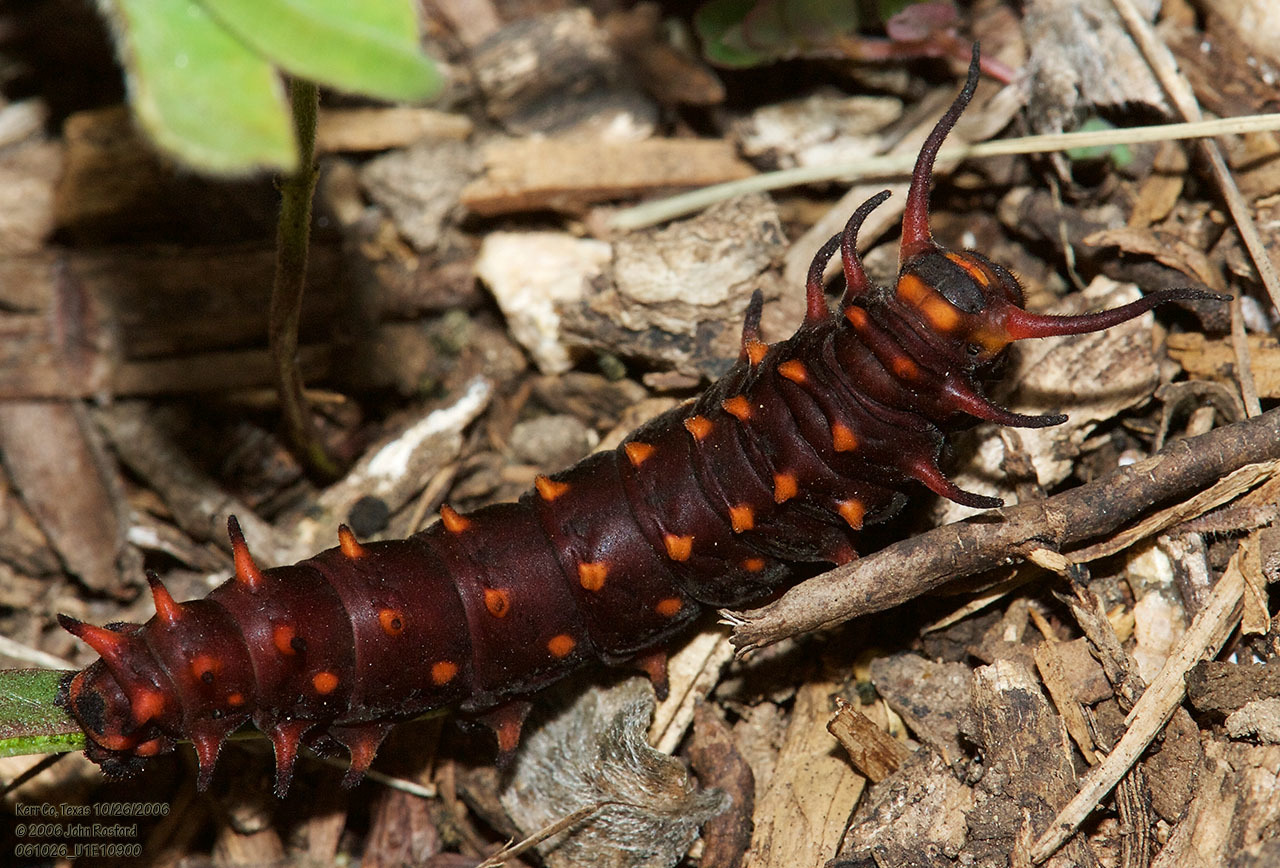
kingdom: Animalia
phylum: Arthropoda
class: Insecta
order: Lepidoptera
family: Papilionidae
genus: Battus
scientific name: Battus philenor
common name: Pipevine swallowtail
